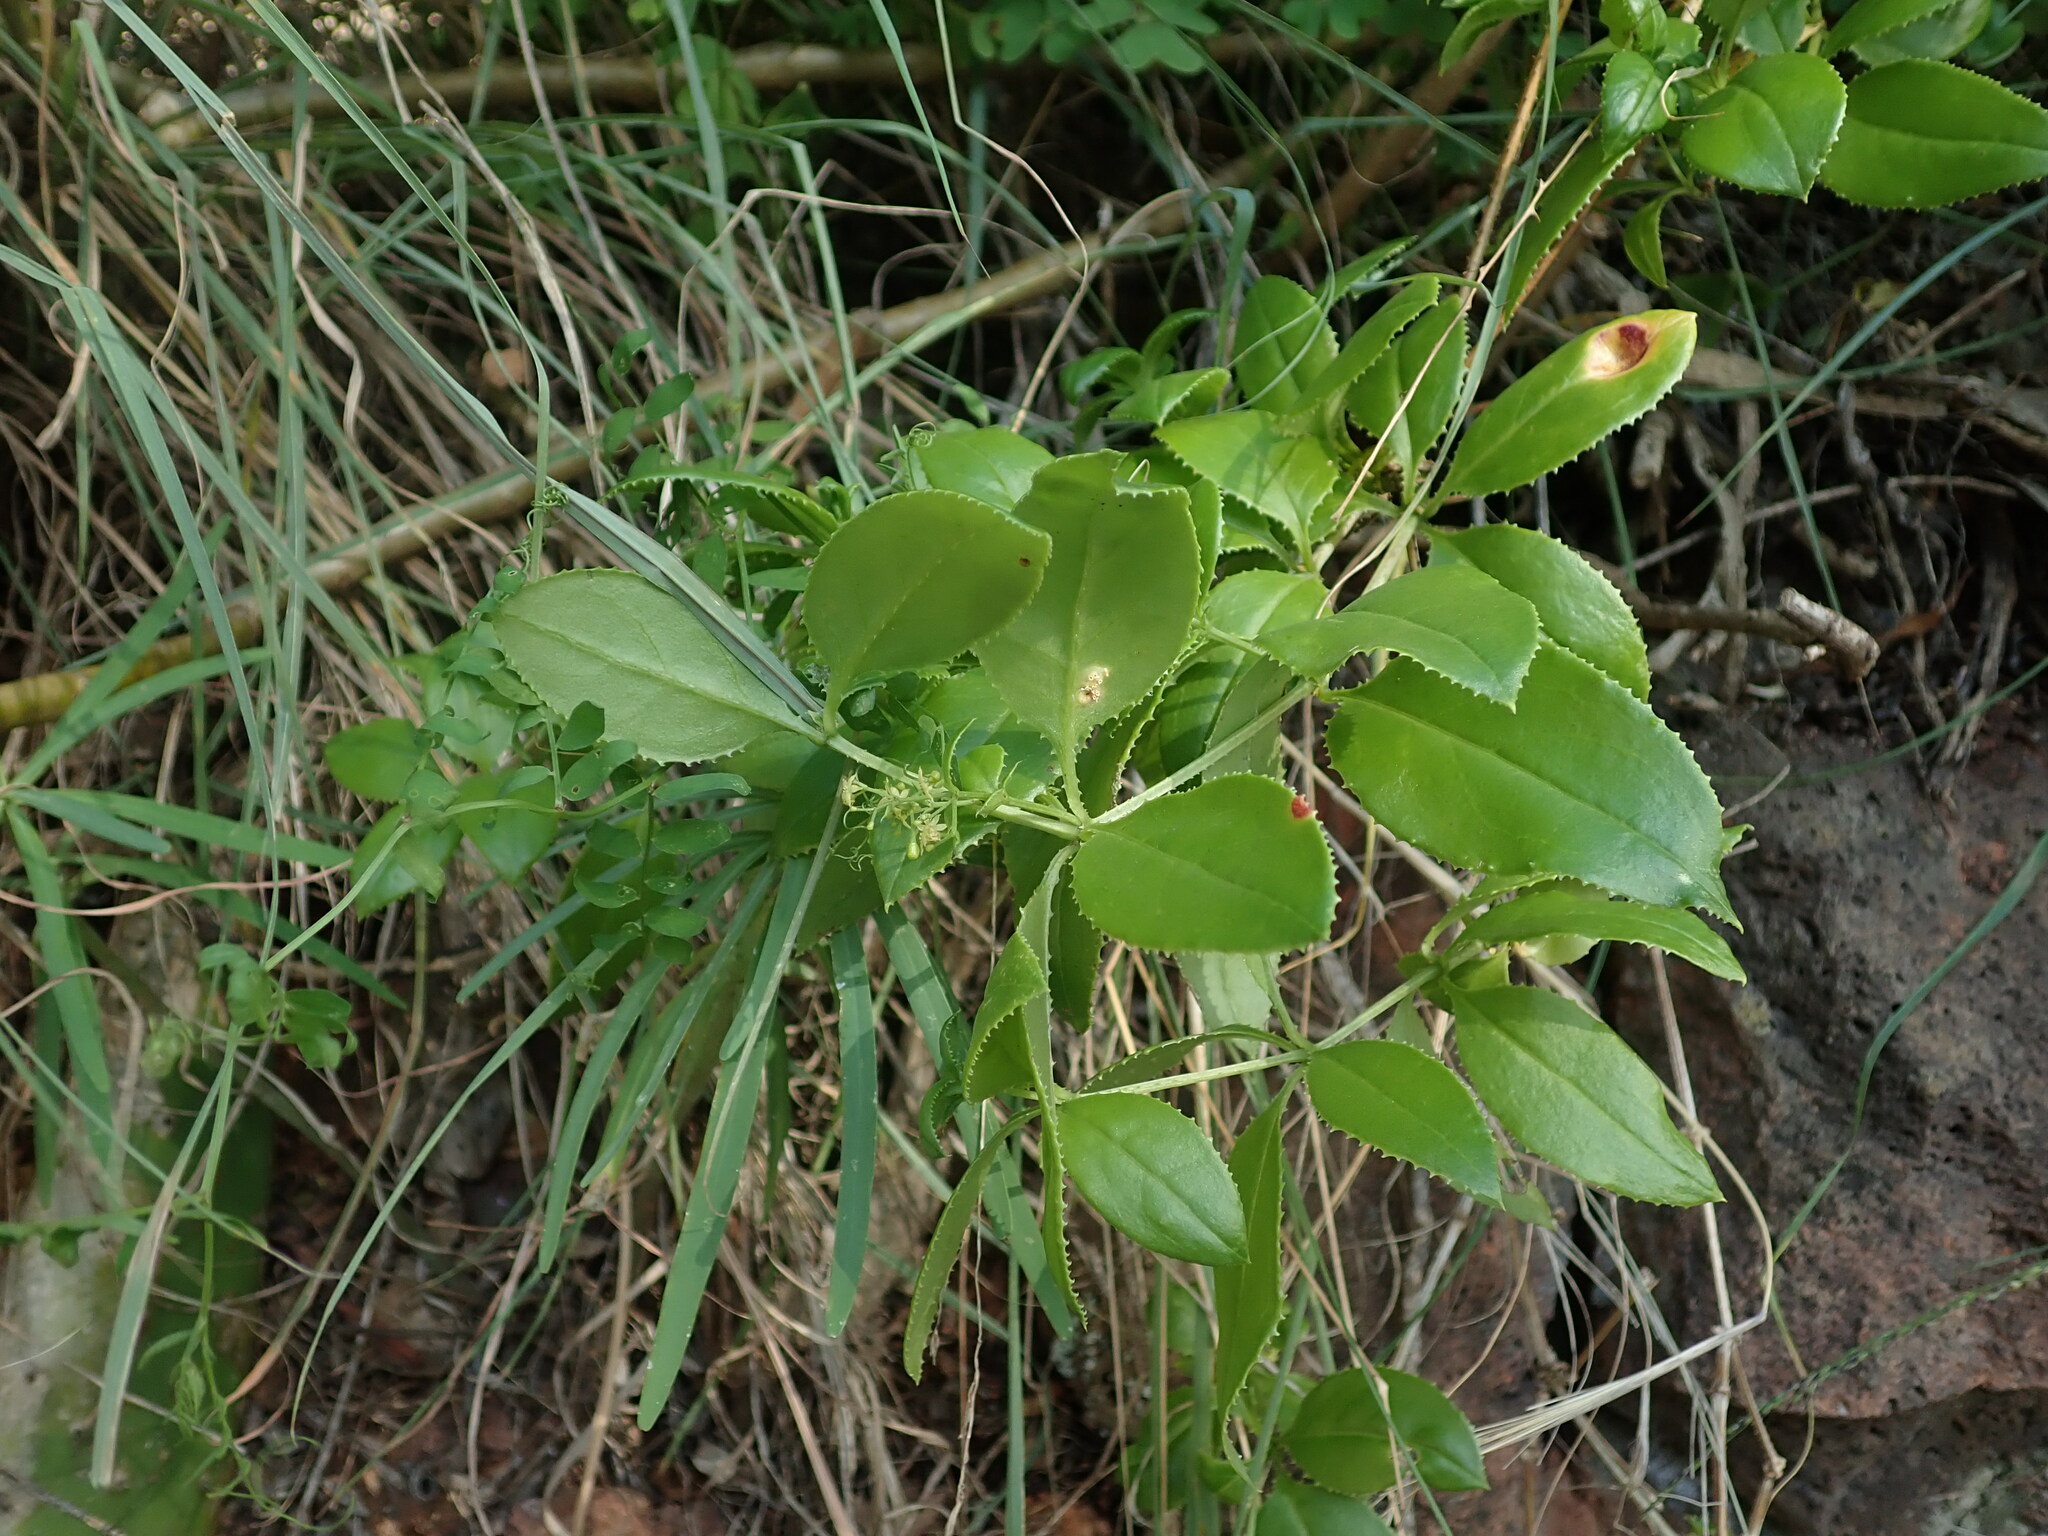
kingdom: Plantae
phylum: Tracheophyta
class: Magnoliopsida
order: Gentianales
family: Rubiaceae
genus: Rubia
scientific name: Rubia fruticosa
